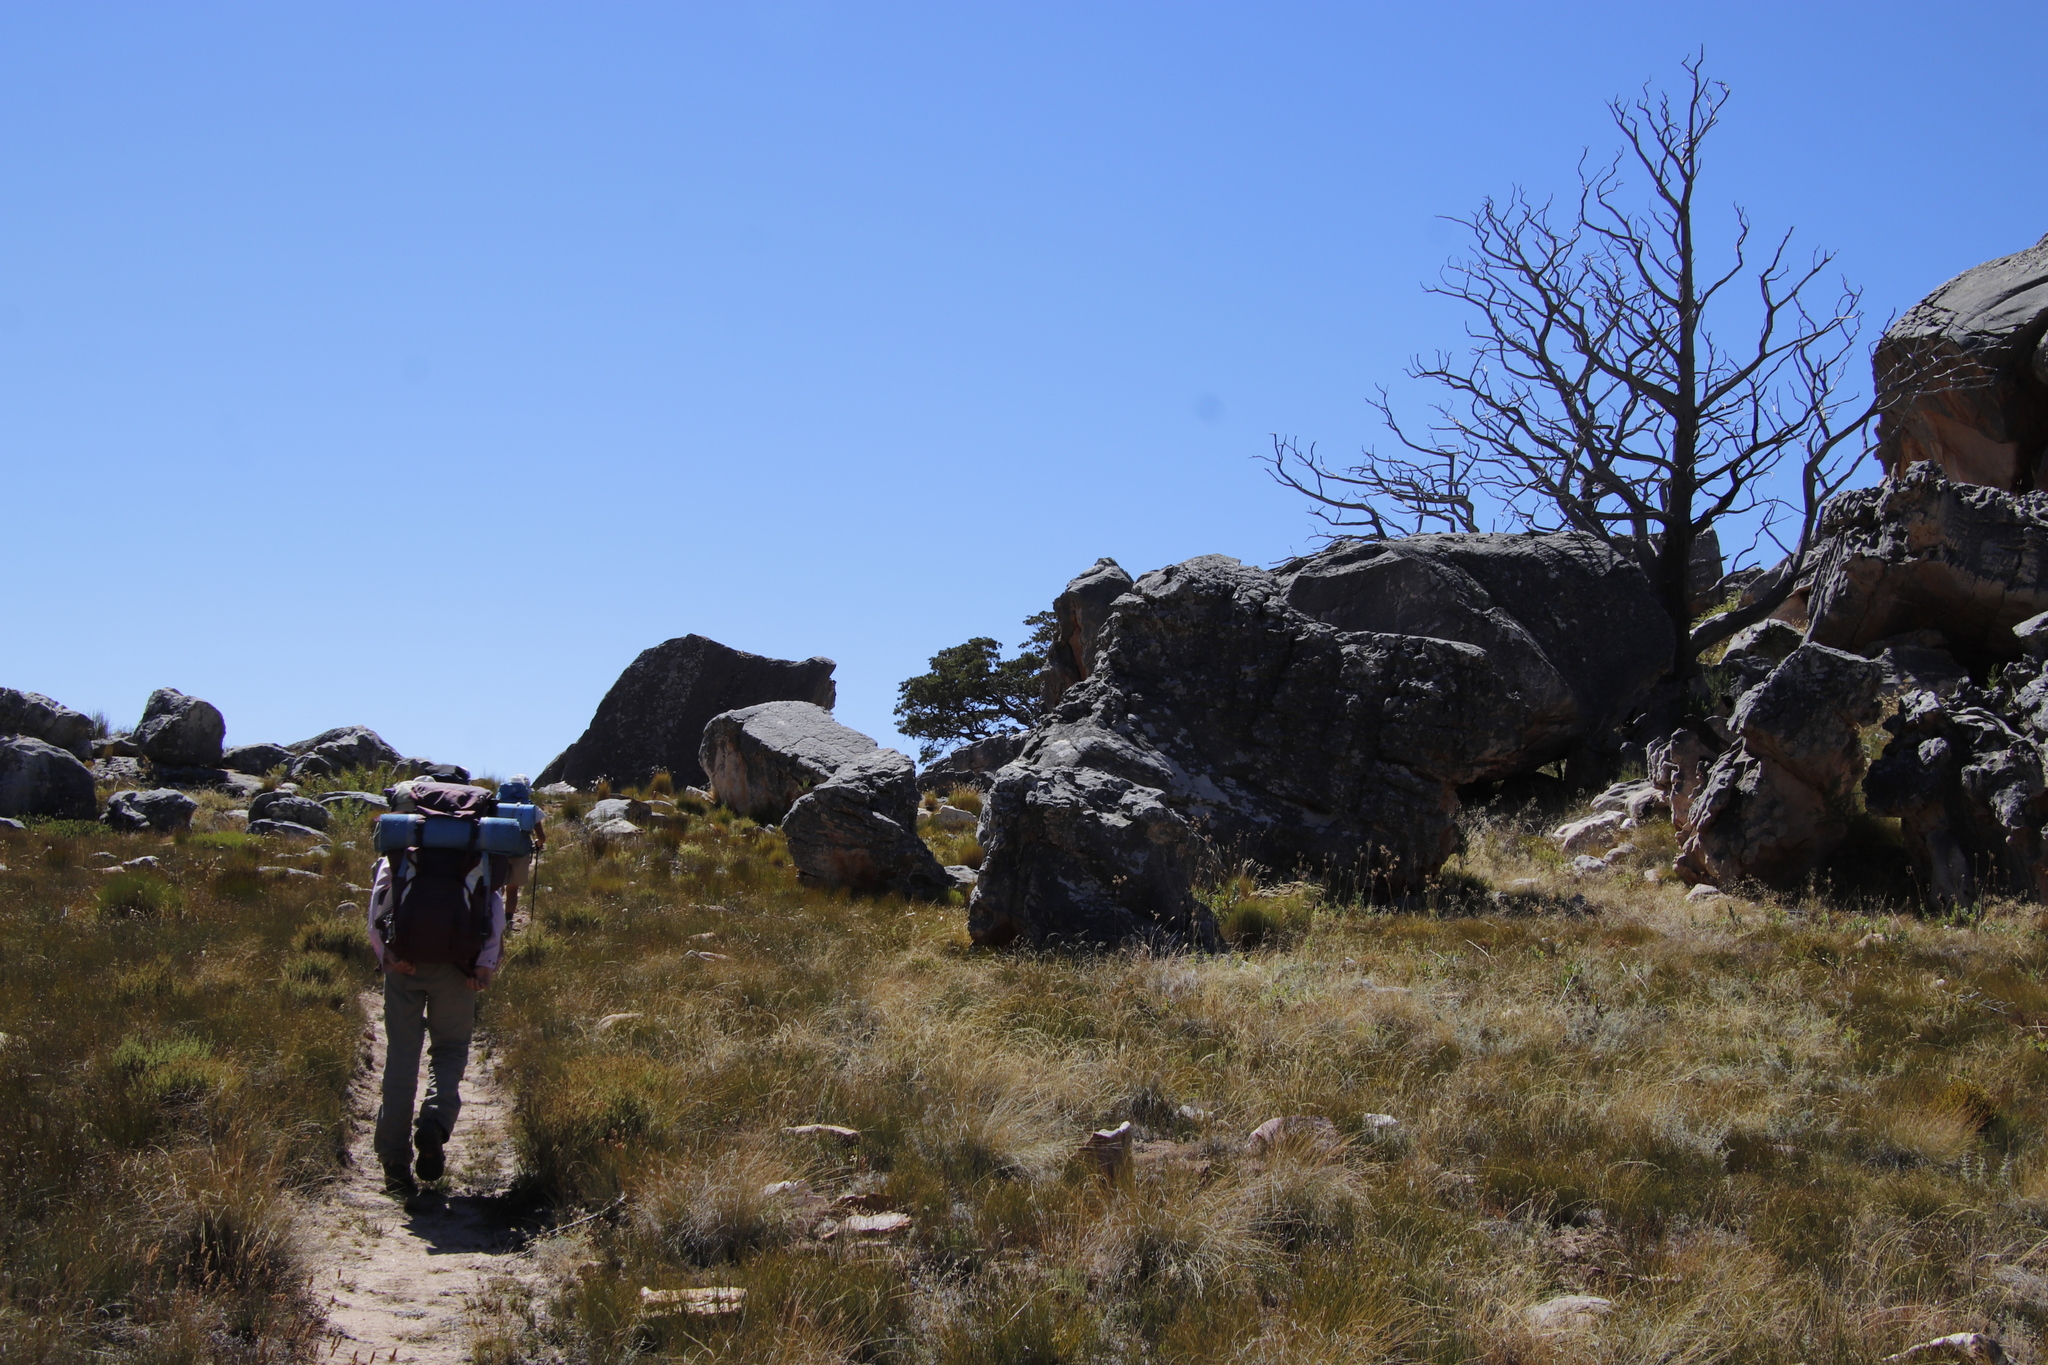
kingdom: Plantae
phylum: Tracheophyta
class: Pinopsida
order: Pinales
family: Cupressaceae
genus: Widdringtonia
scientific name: Widdringtonia nodiflora
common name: Cape cypress
